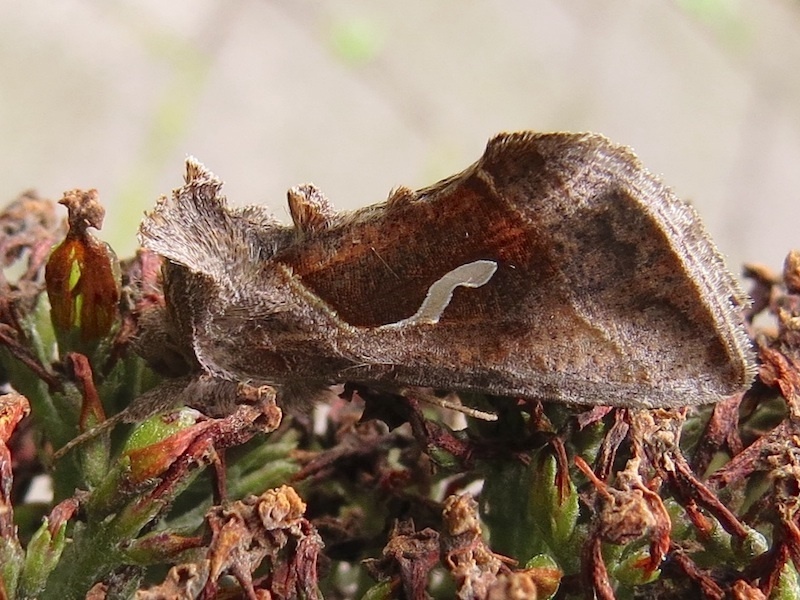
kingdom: Animalia
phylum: Arthropoda
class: Insecta
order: Lepidoptera
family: Noctuidae
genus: Macdunnoughia
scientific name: Macdunnoughia confusa
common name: Dewick's plusia
